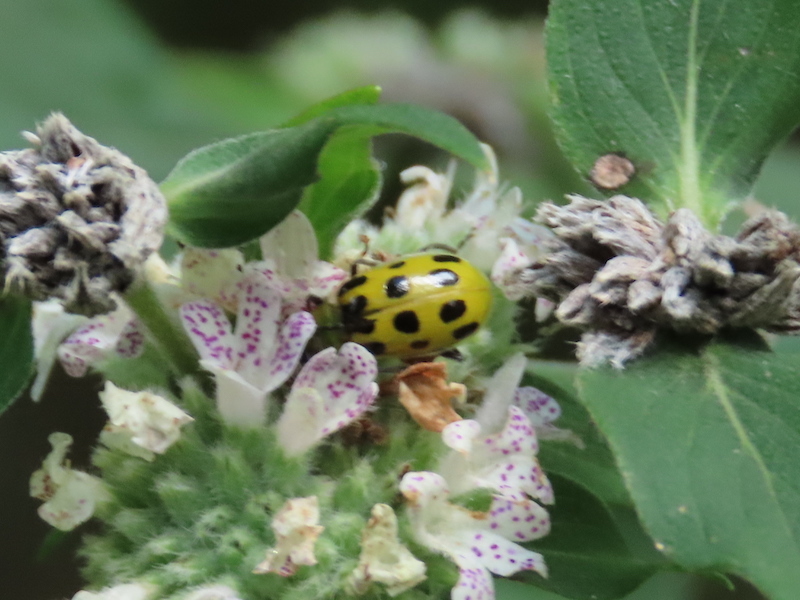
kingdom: Animalia
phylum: Arthropoda
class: Insecta
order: Coleoptera
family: Chrysomelidae
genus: Diabrotica
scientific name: Diabrotica undecimpunctata
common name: Spotted cucumber beetle
